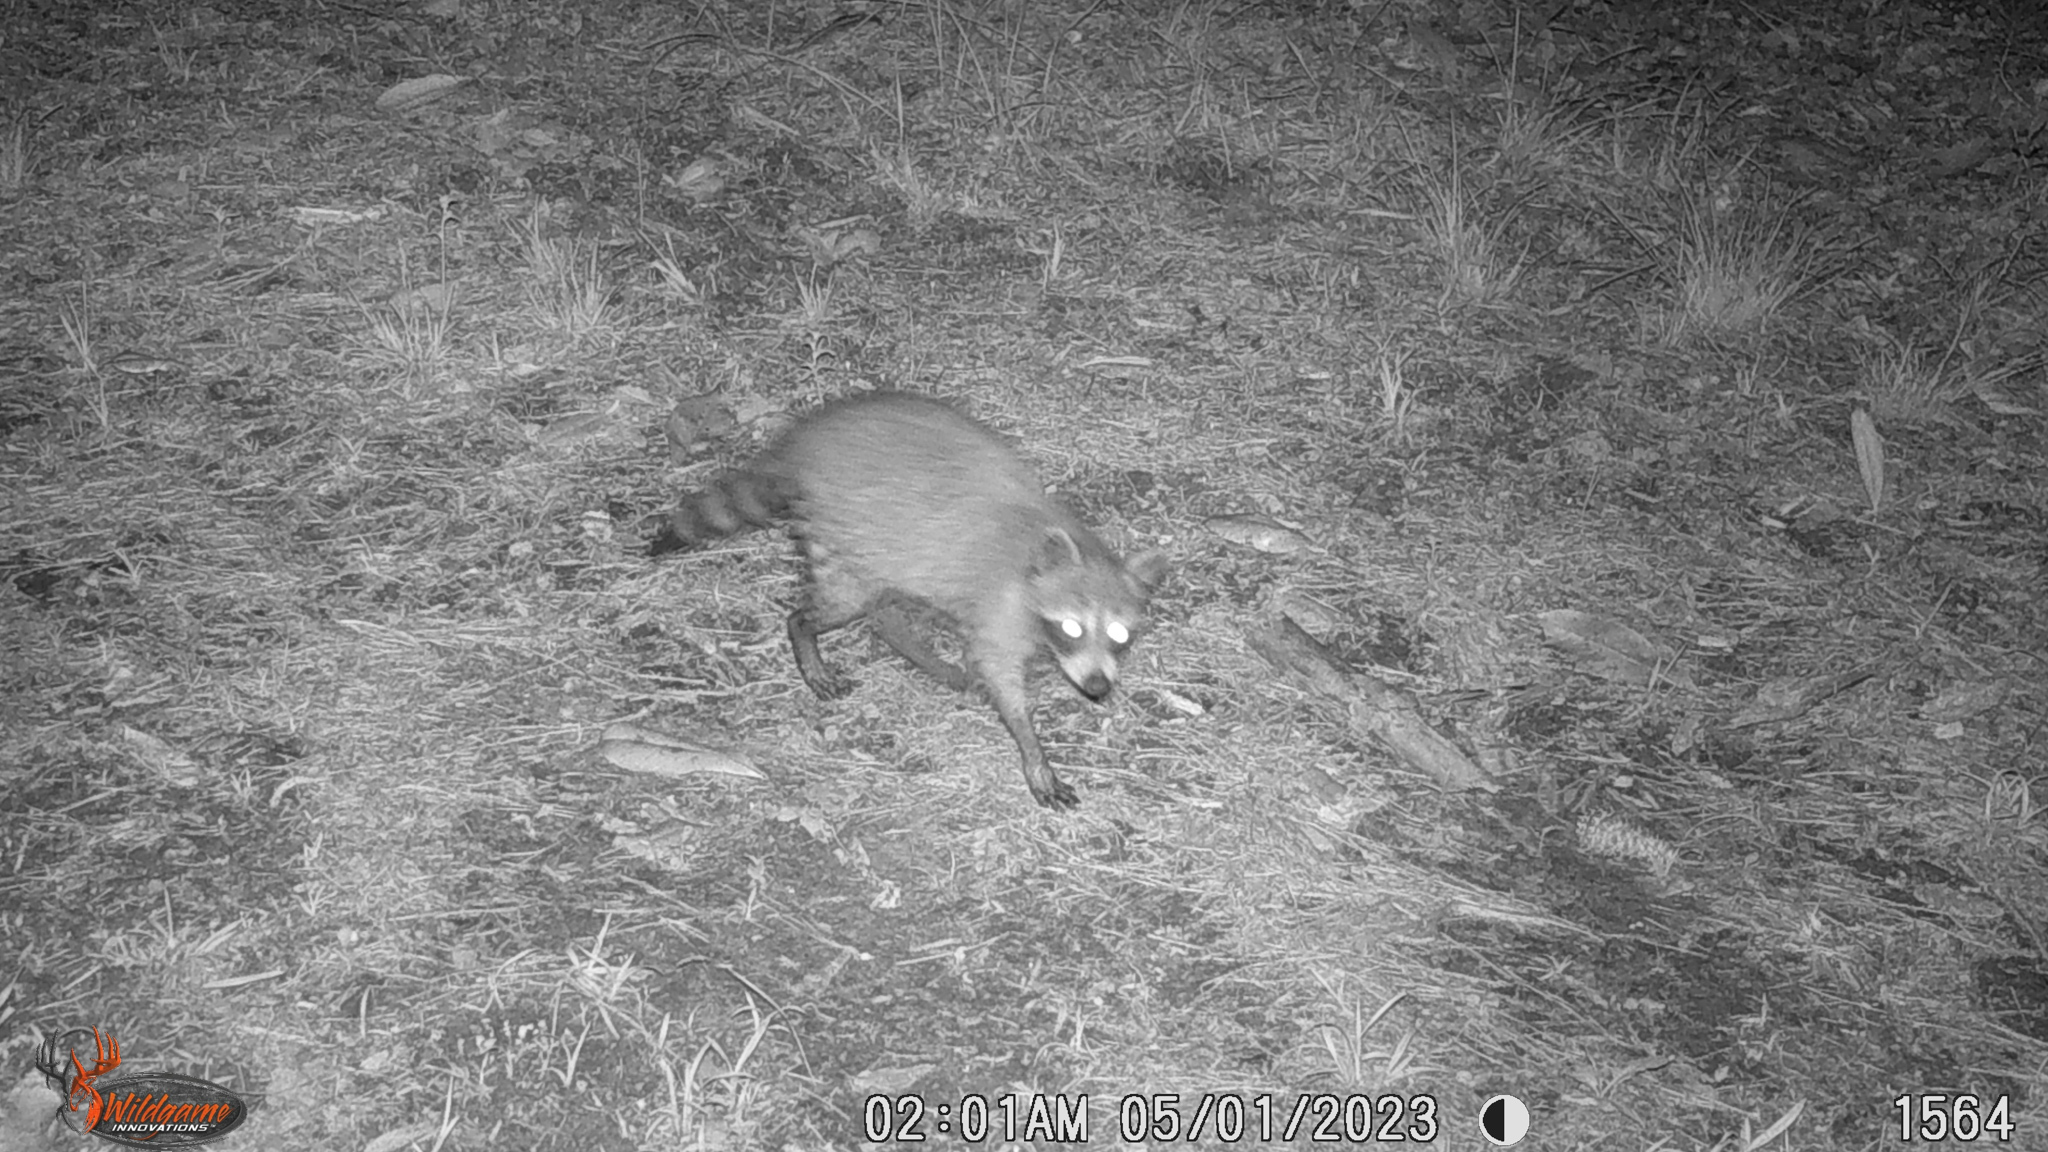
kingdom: Animalia
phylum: Chordata
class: Mammalia
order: Carnivora
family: Procyonidae
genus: Procyon
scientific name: Procyon lotor
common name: Raccoon
